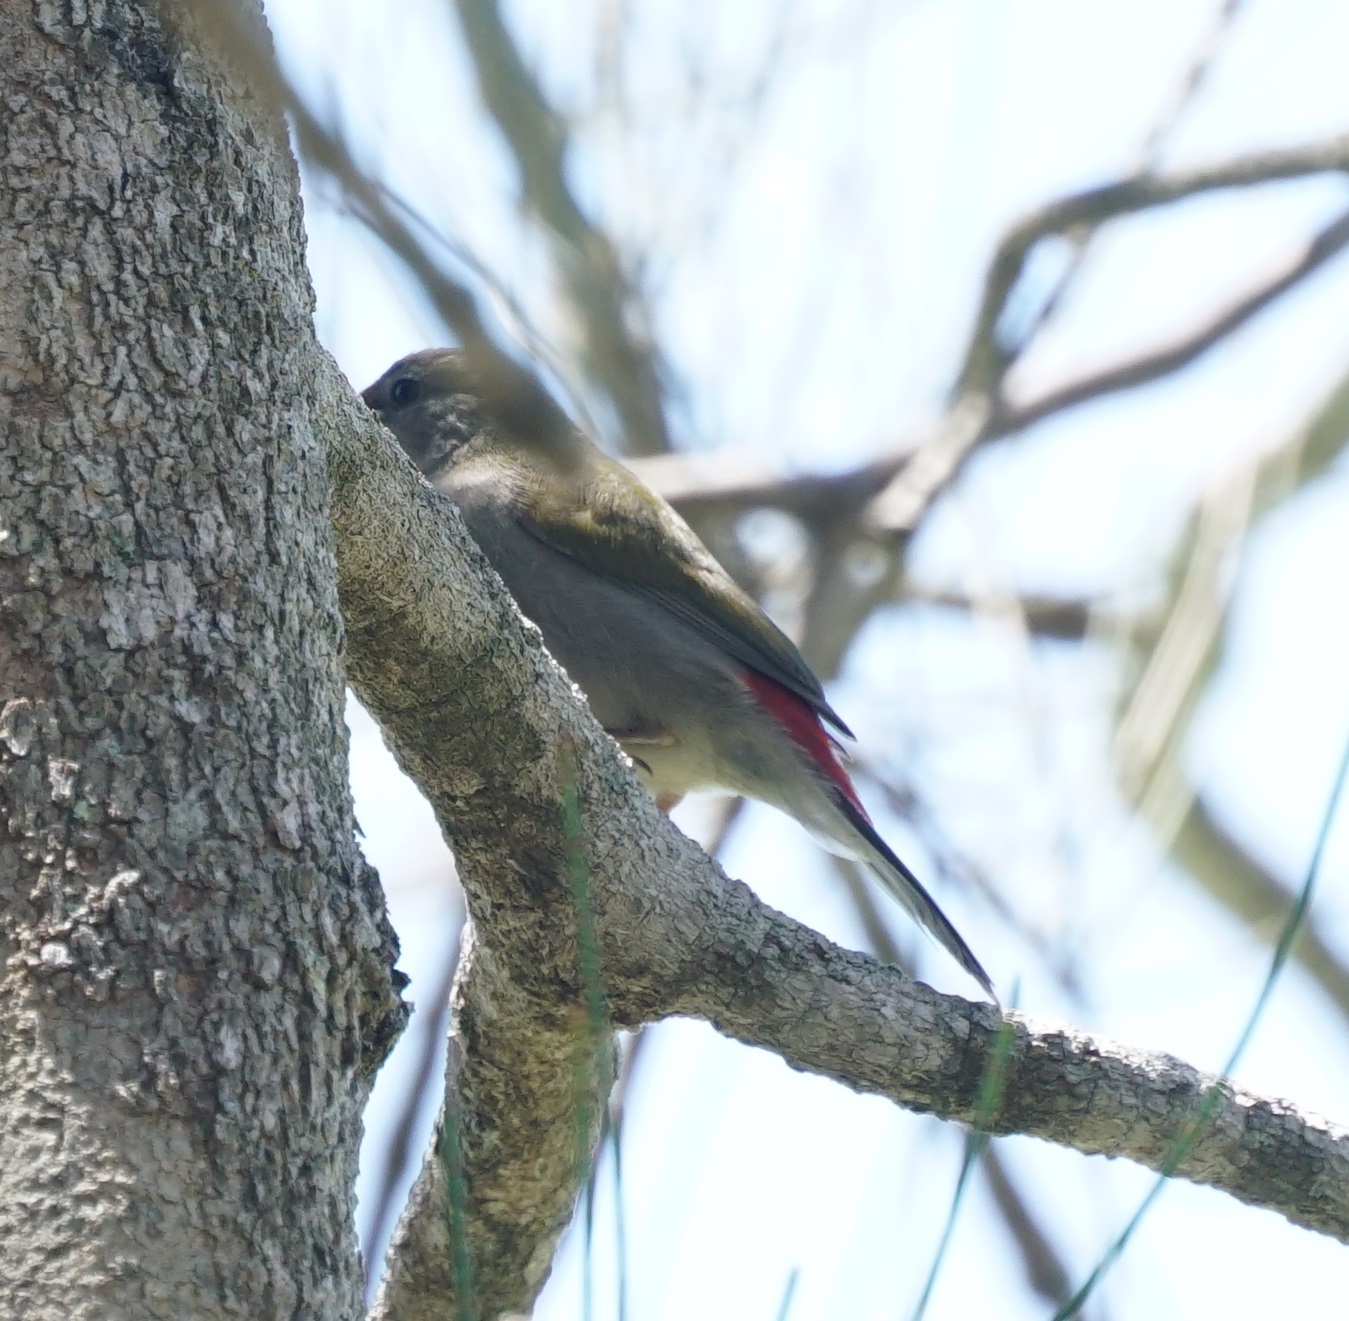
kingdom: Animalia
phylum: Chordata
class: Aves
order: Passeriformes
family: Estrildidae
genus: Neochmia
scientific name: Neochmia temporalis
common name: Red-browed finch
